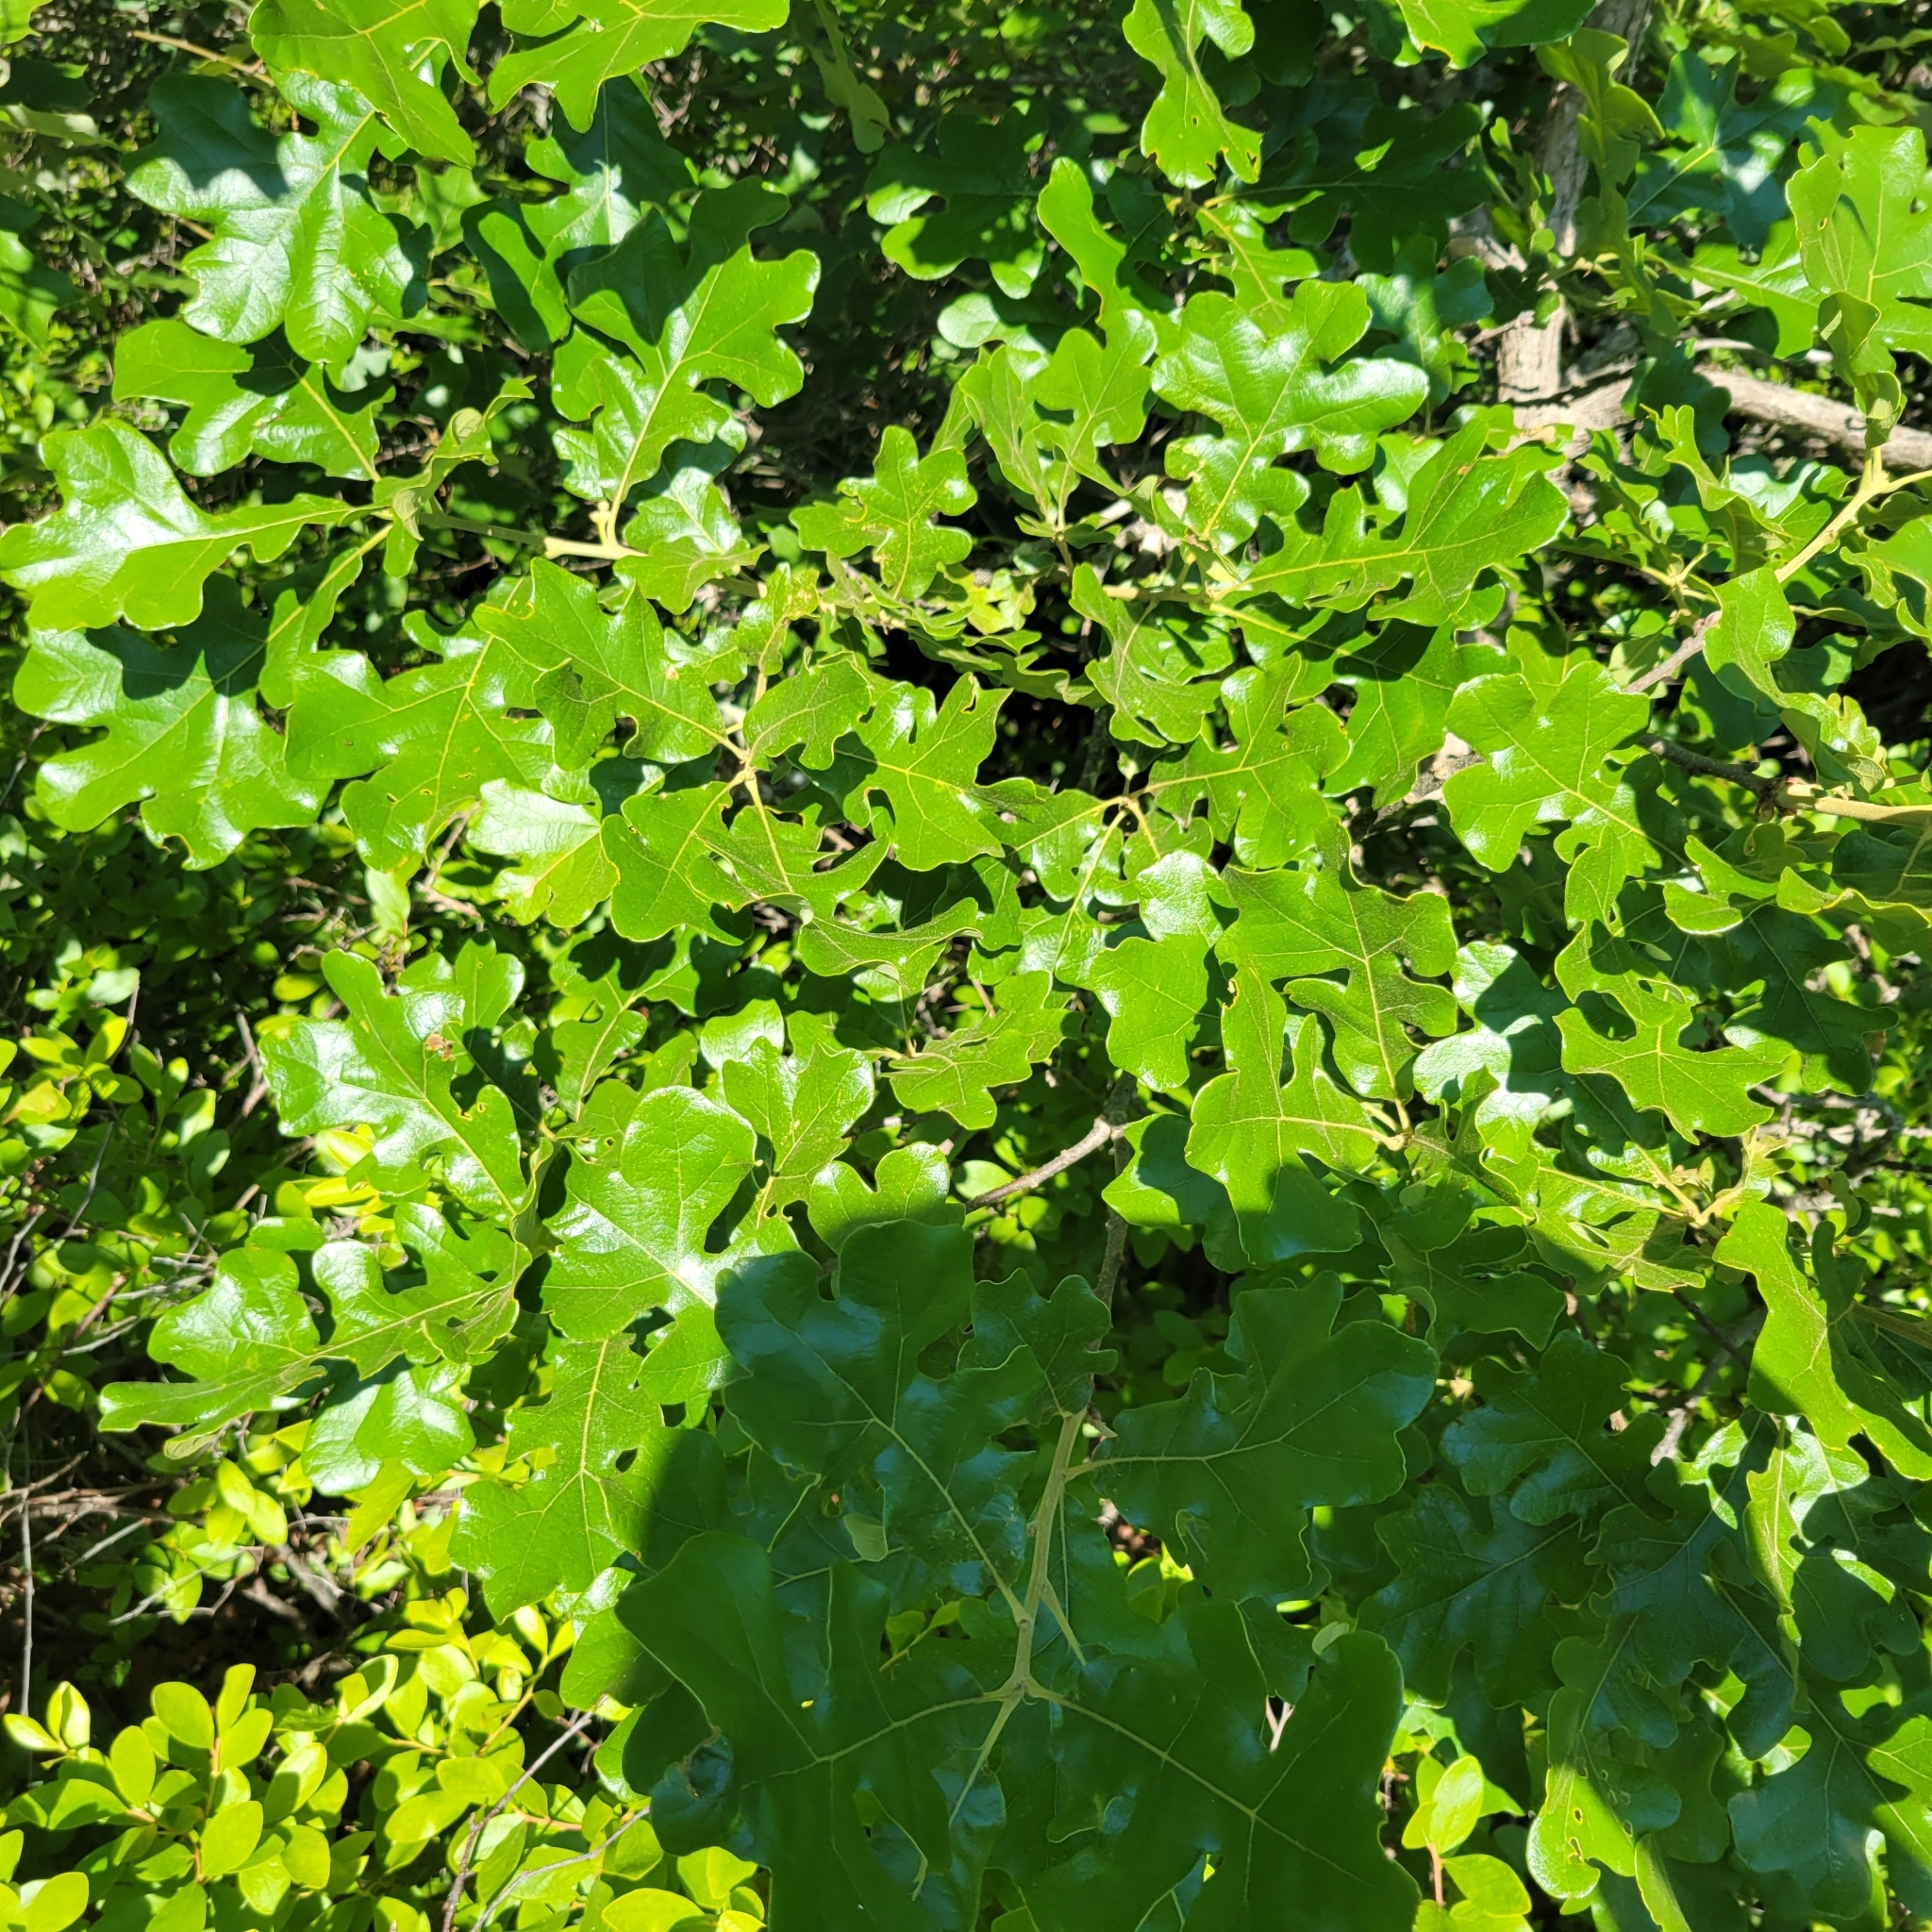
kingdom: Plantae
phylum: Tracheophyta
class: Magnoliopsida
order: Fagales
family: Fagaceae
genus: Quercus
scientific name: Quercus stellata
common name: Post oak
